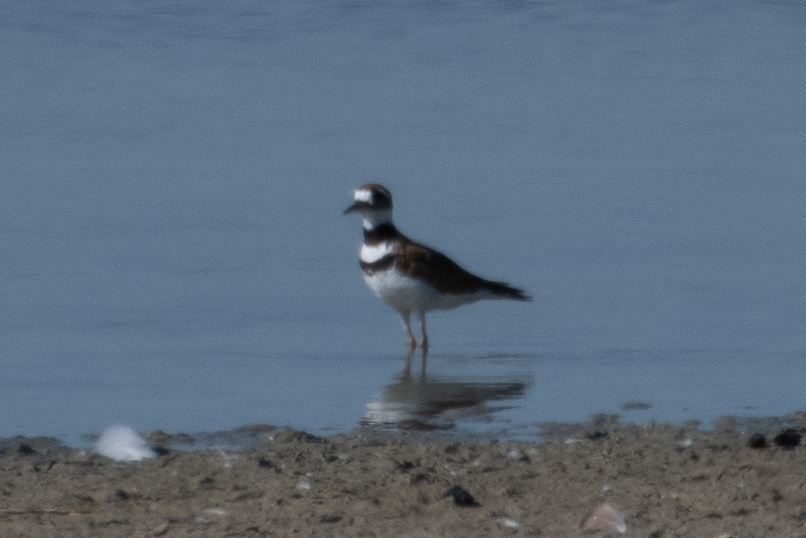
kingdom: Animalia
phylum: Chordata
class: Aves
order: Charadriiformes
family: Charadriidae
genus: Charadrius
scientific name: Charadrius vociferus
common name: Killdeer
